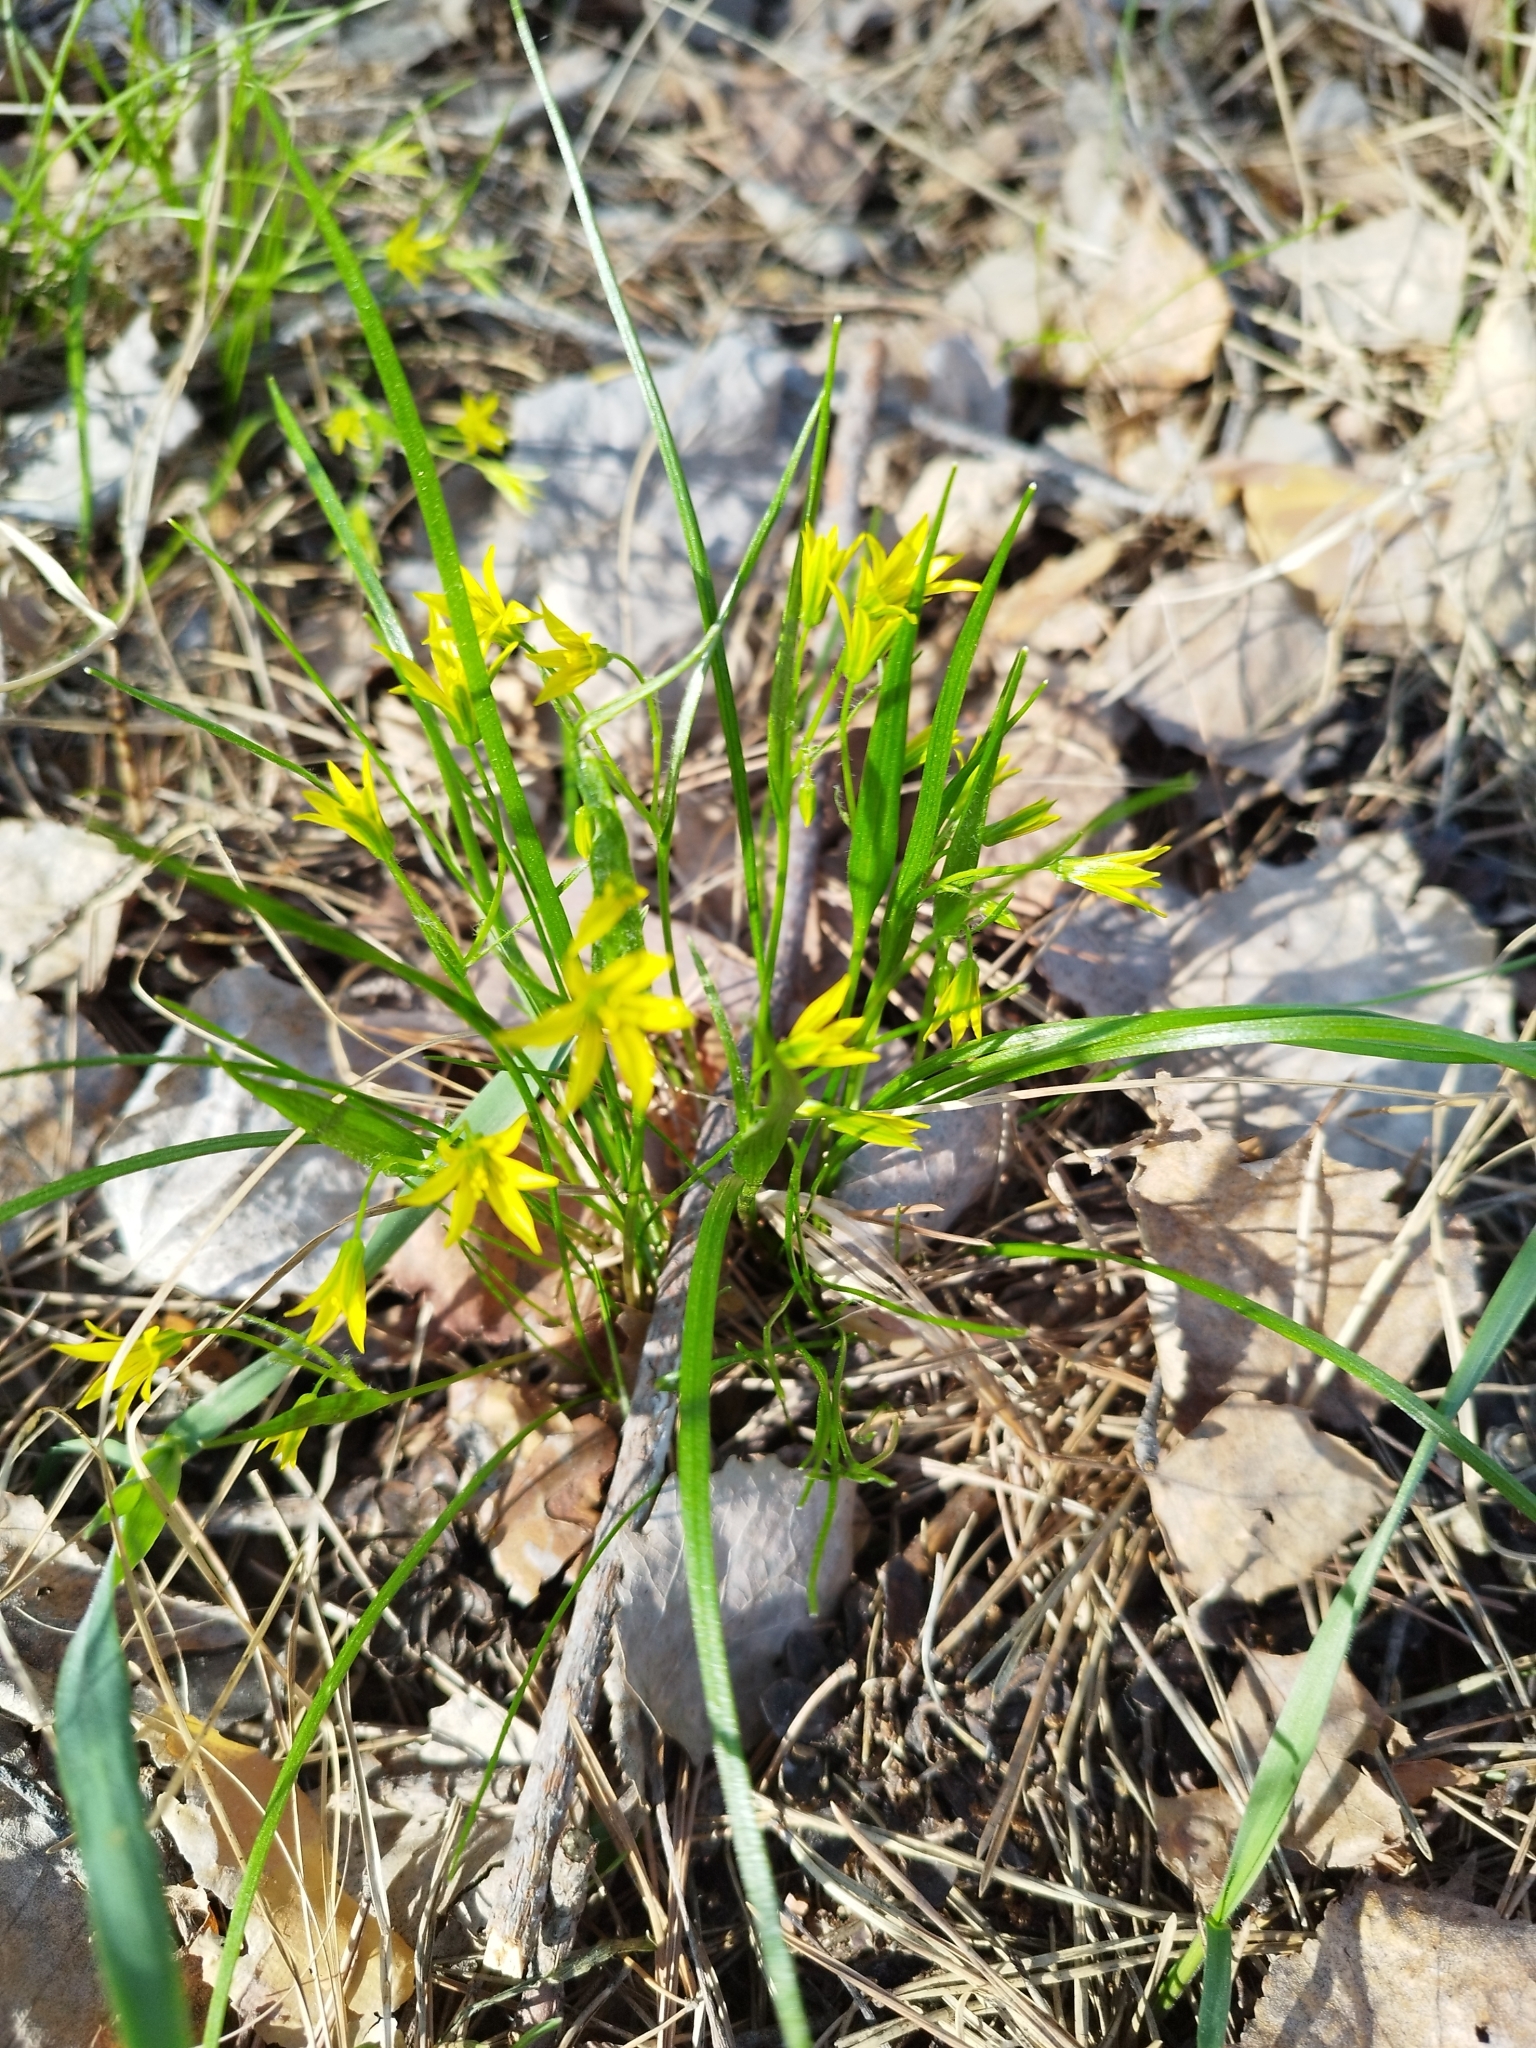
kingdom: Plantae
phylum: Tracheophyta
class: Liliopsida
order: Liliales
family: Liliaceae
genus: Gagea
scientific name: Gagea minima
